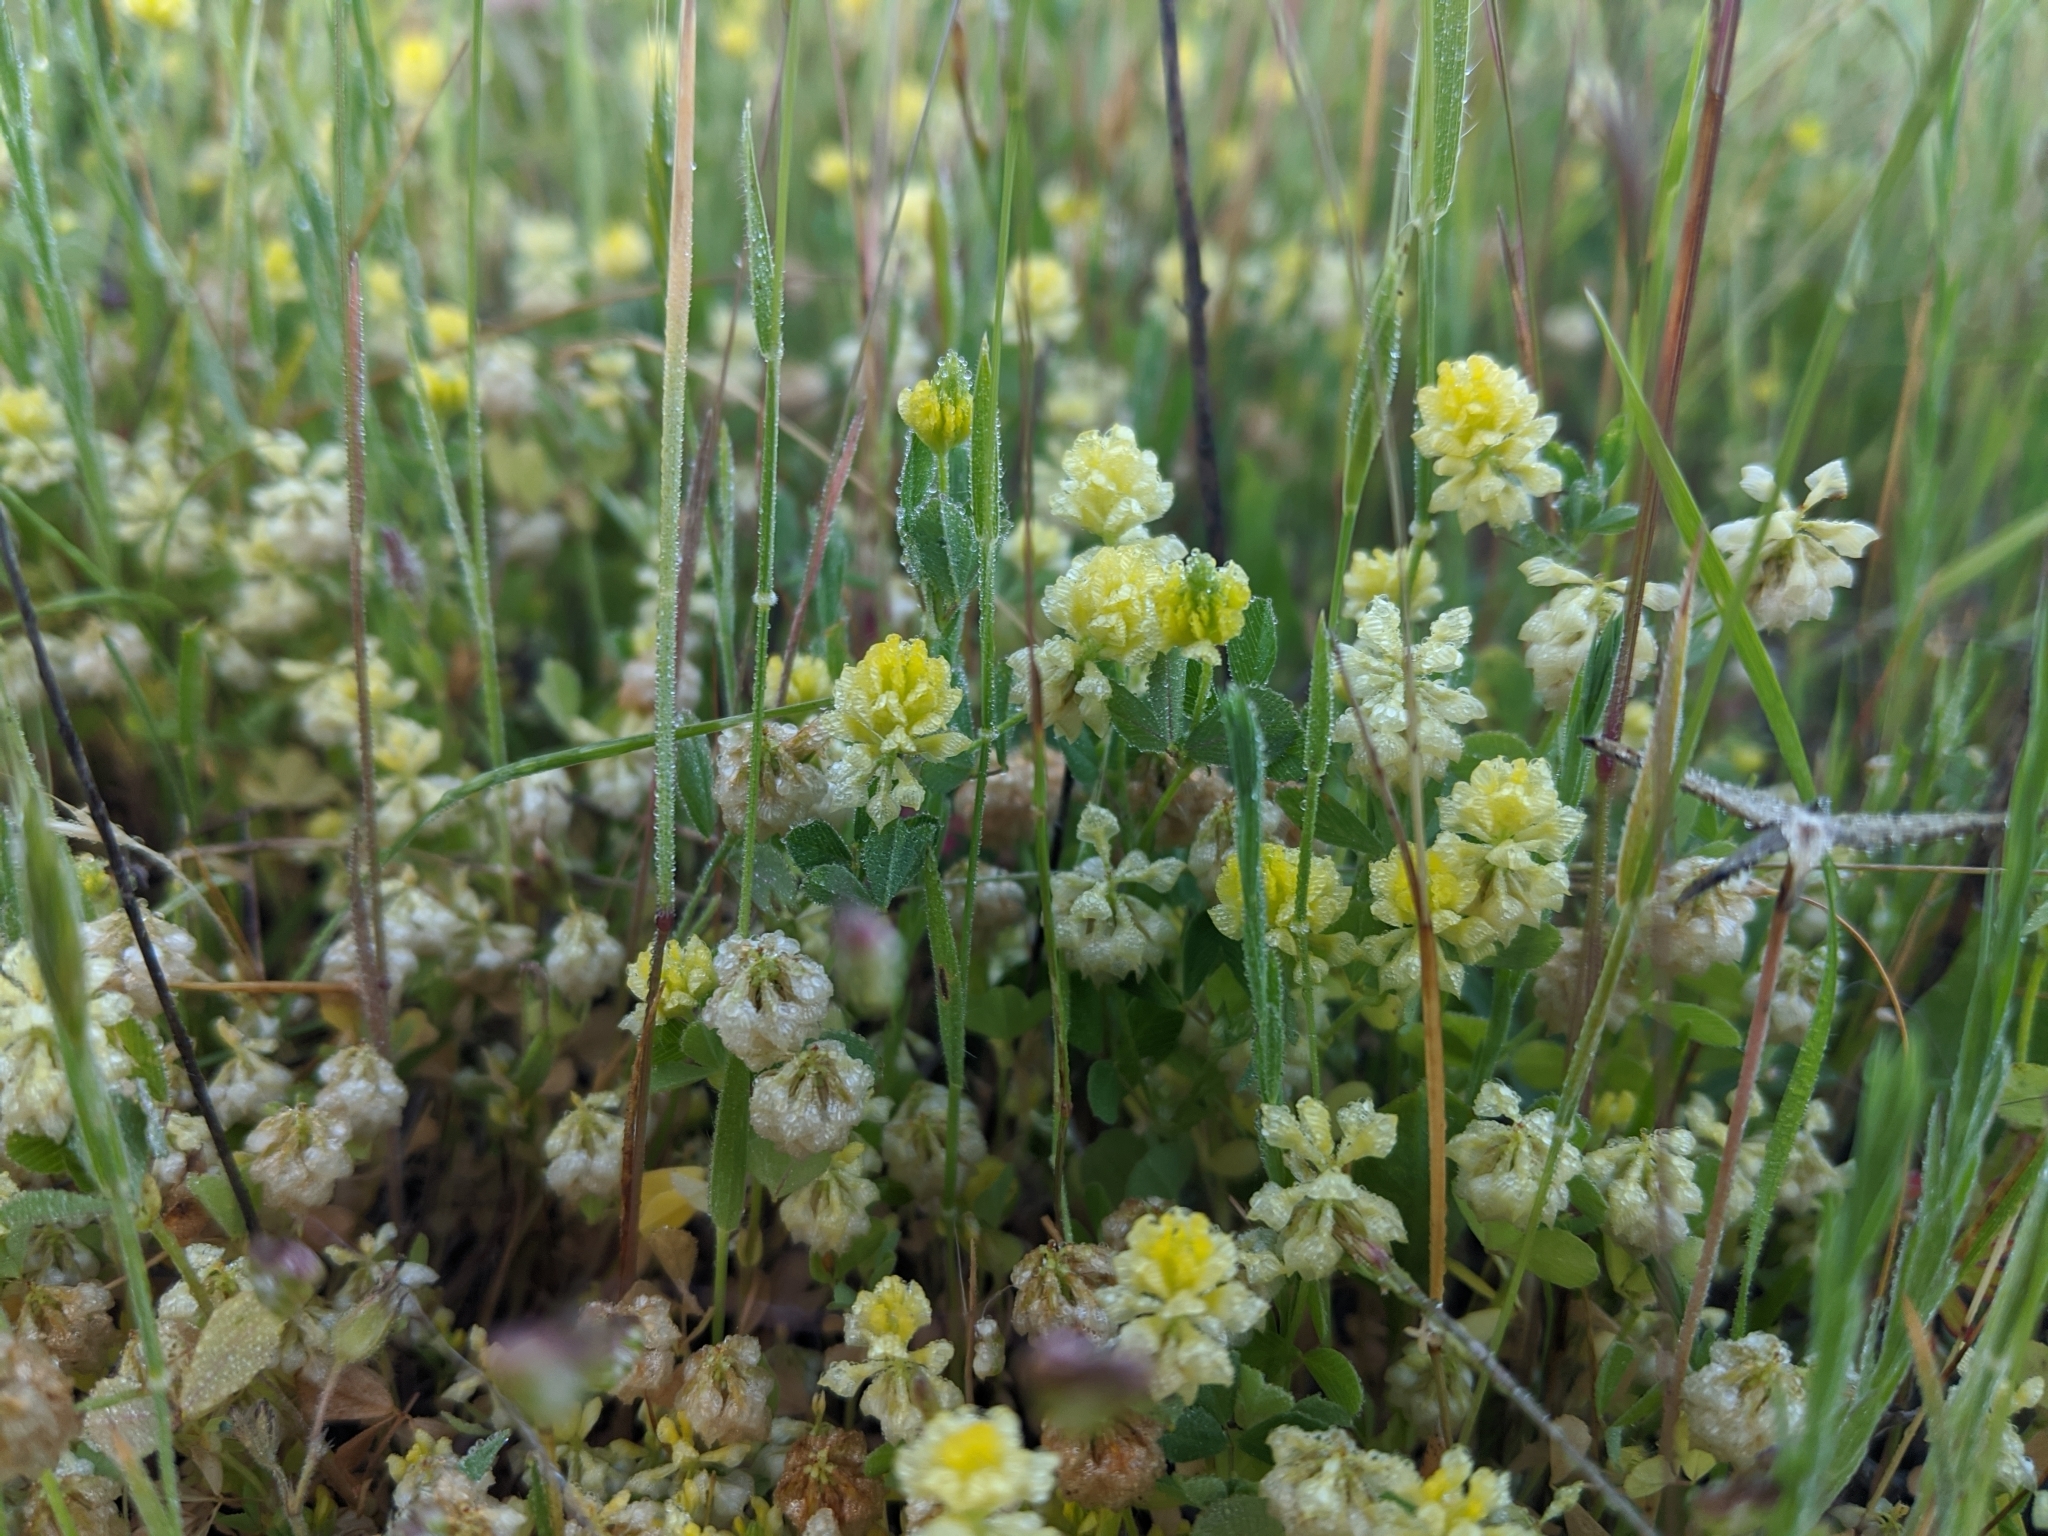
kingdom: Plantae
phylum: Tracheophyta
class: Magnoliopsida
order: Fabales
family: Fabaceae
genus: Trifolium
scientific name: Trifolium campestre
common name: Field clover
